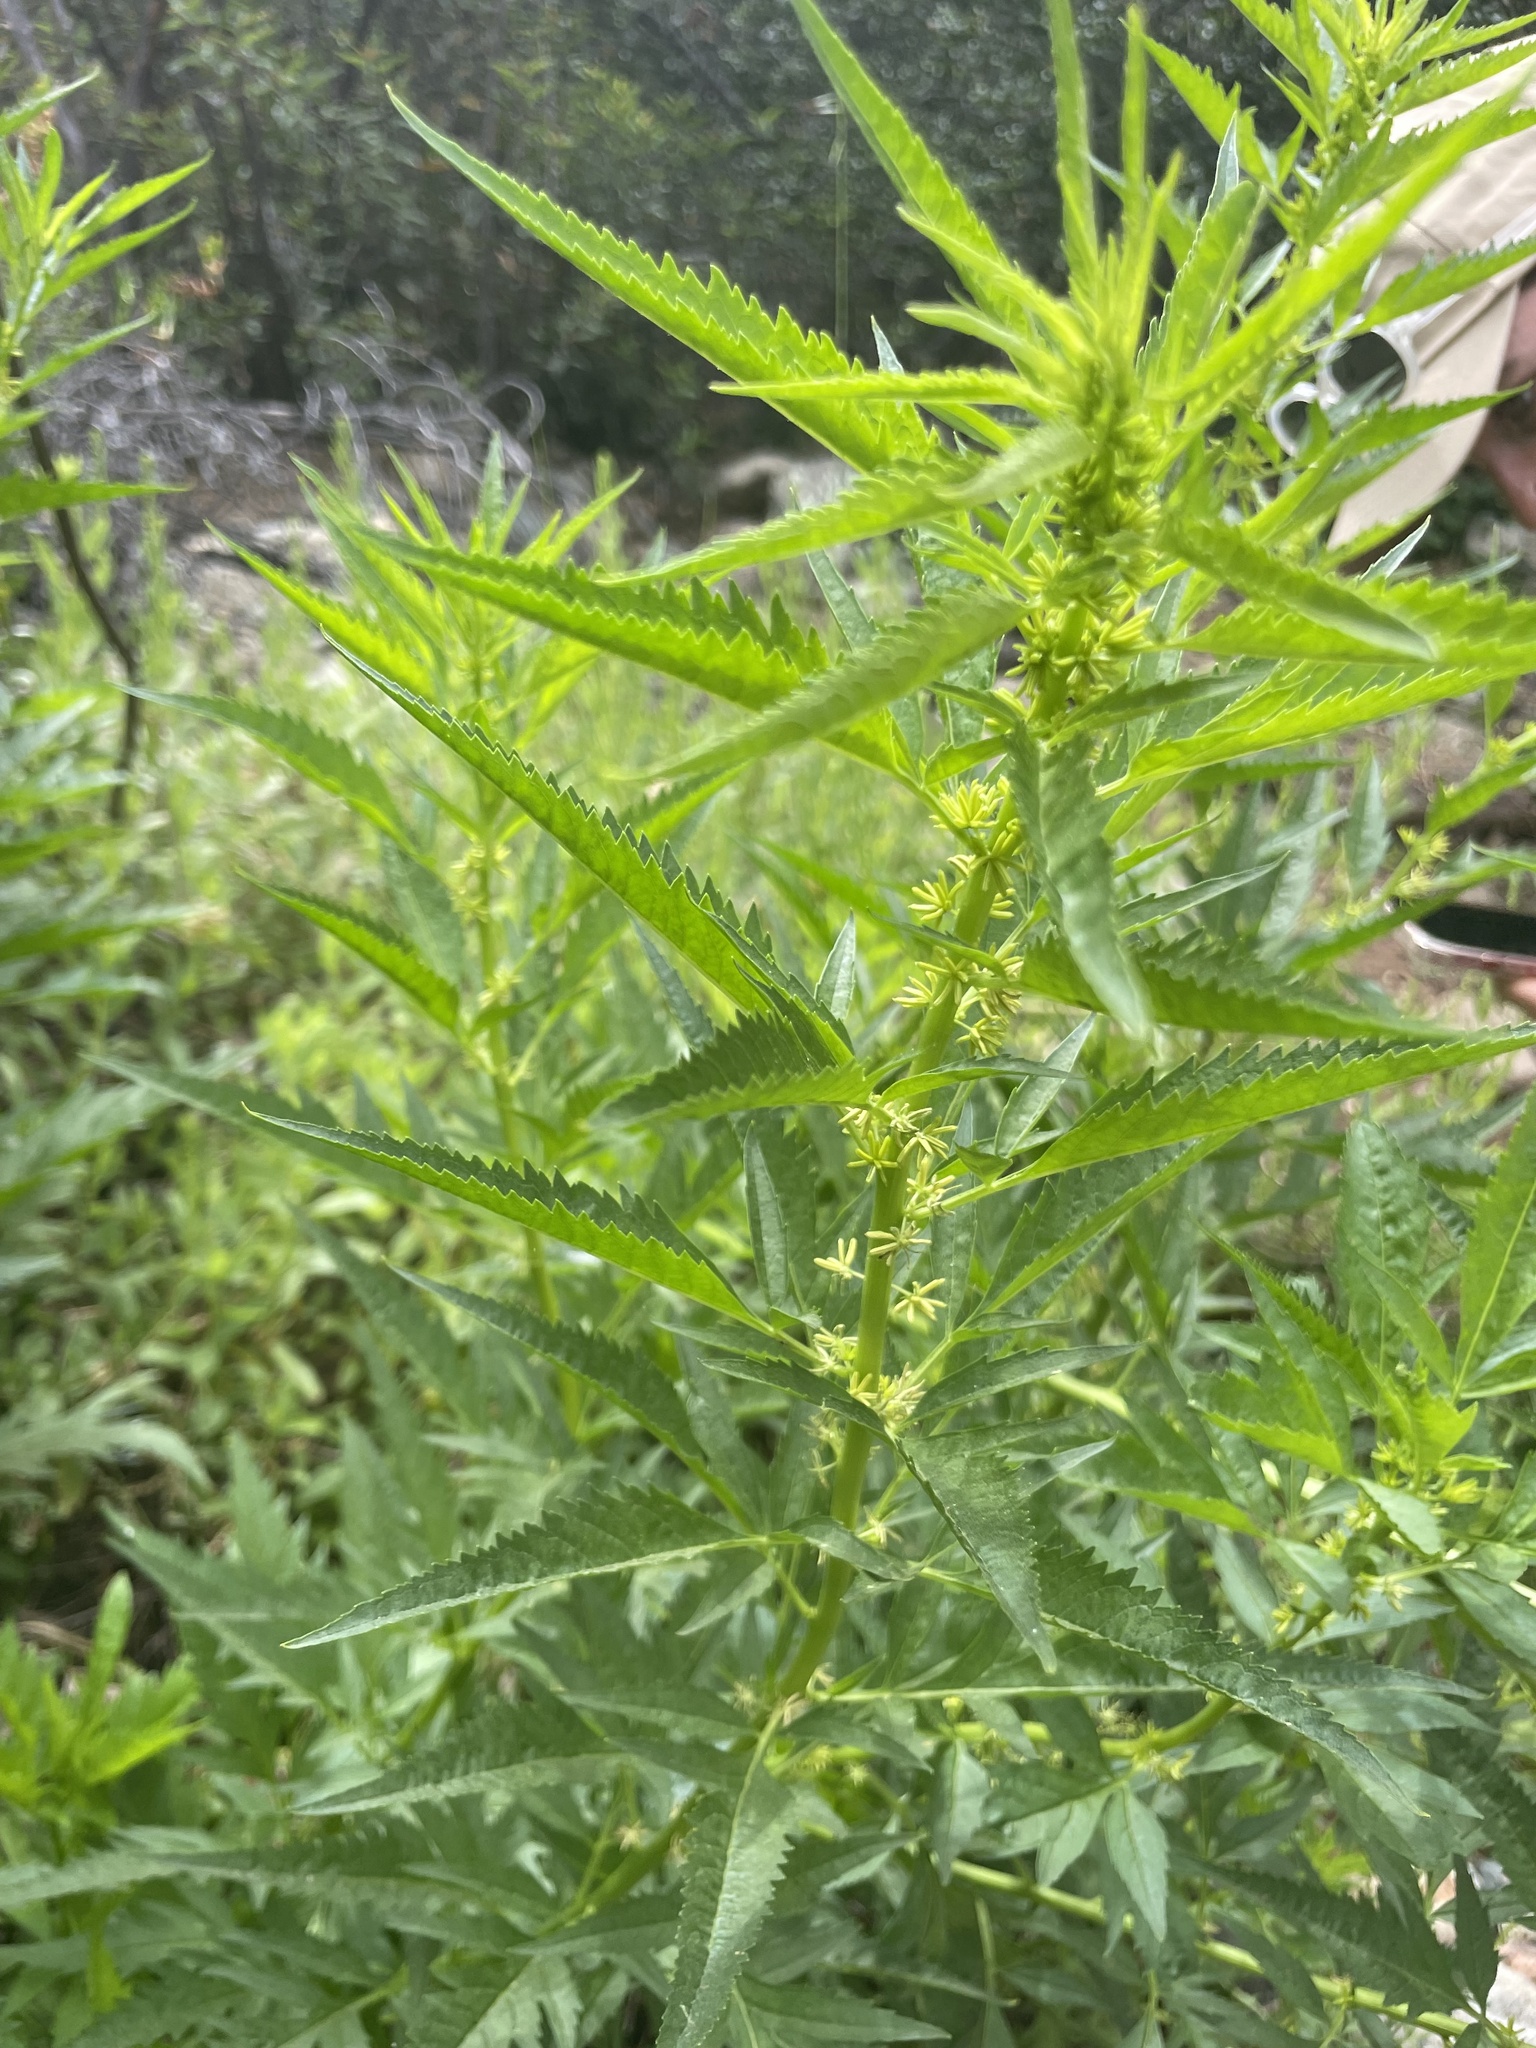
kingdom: Plantae
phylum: Tracheophyta
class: Magnoliopsida
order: Cucurbitales
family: Datiscaceae
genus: Datisca
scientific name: Datisca glomerata
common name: Durango-root
